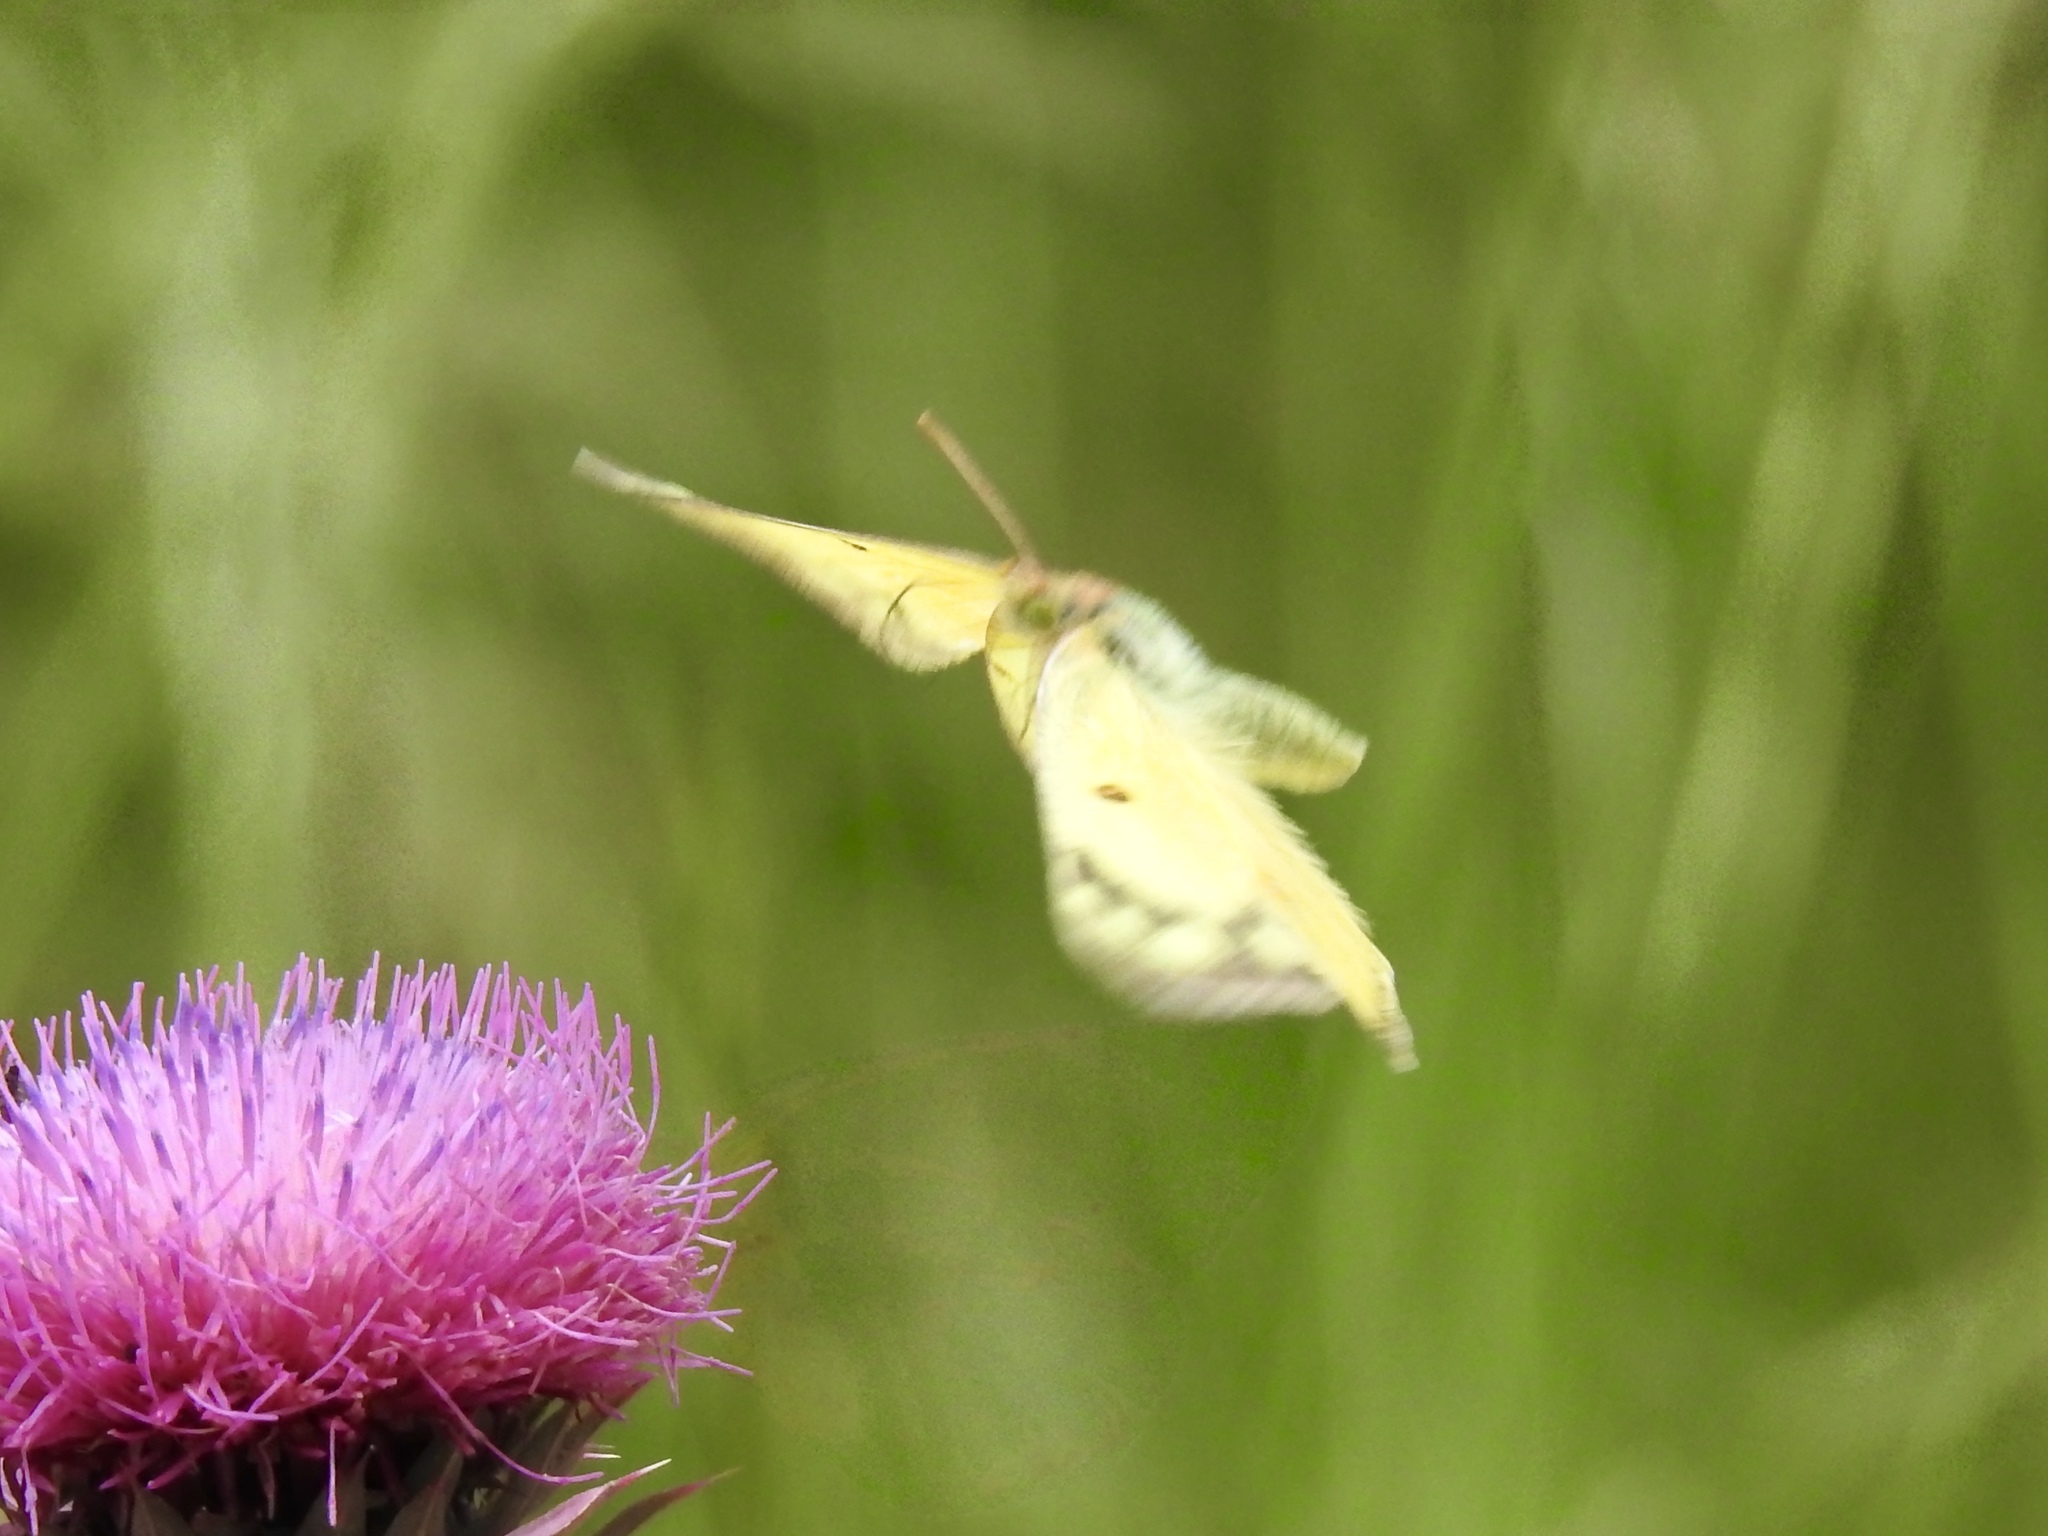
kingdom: Animalia
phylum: Arthropoda
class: Insecta
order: Lepidoptera
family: Pieridae
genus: Colias
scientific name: Colias eurytheme
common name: Alfalfa butterfly
